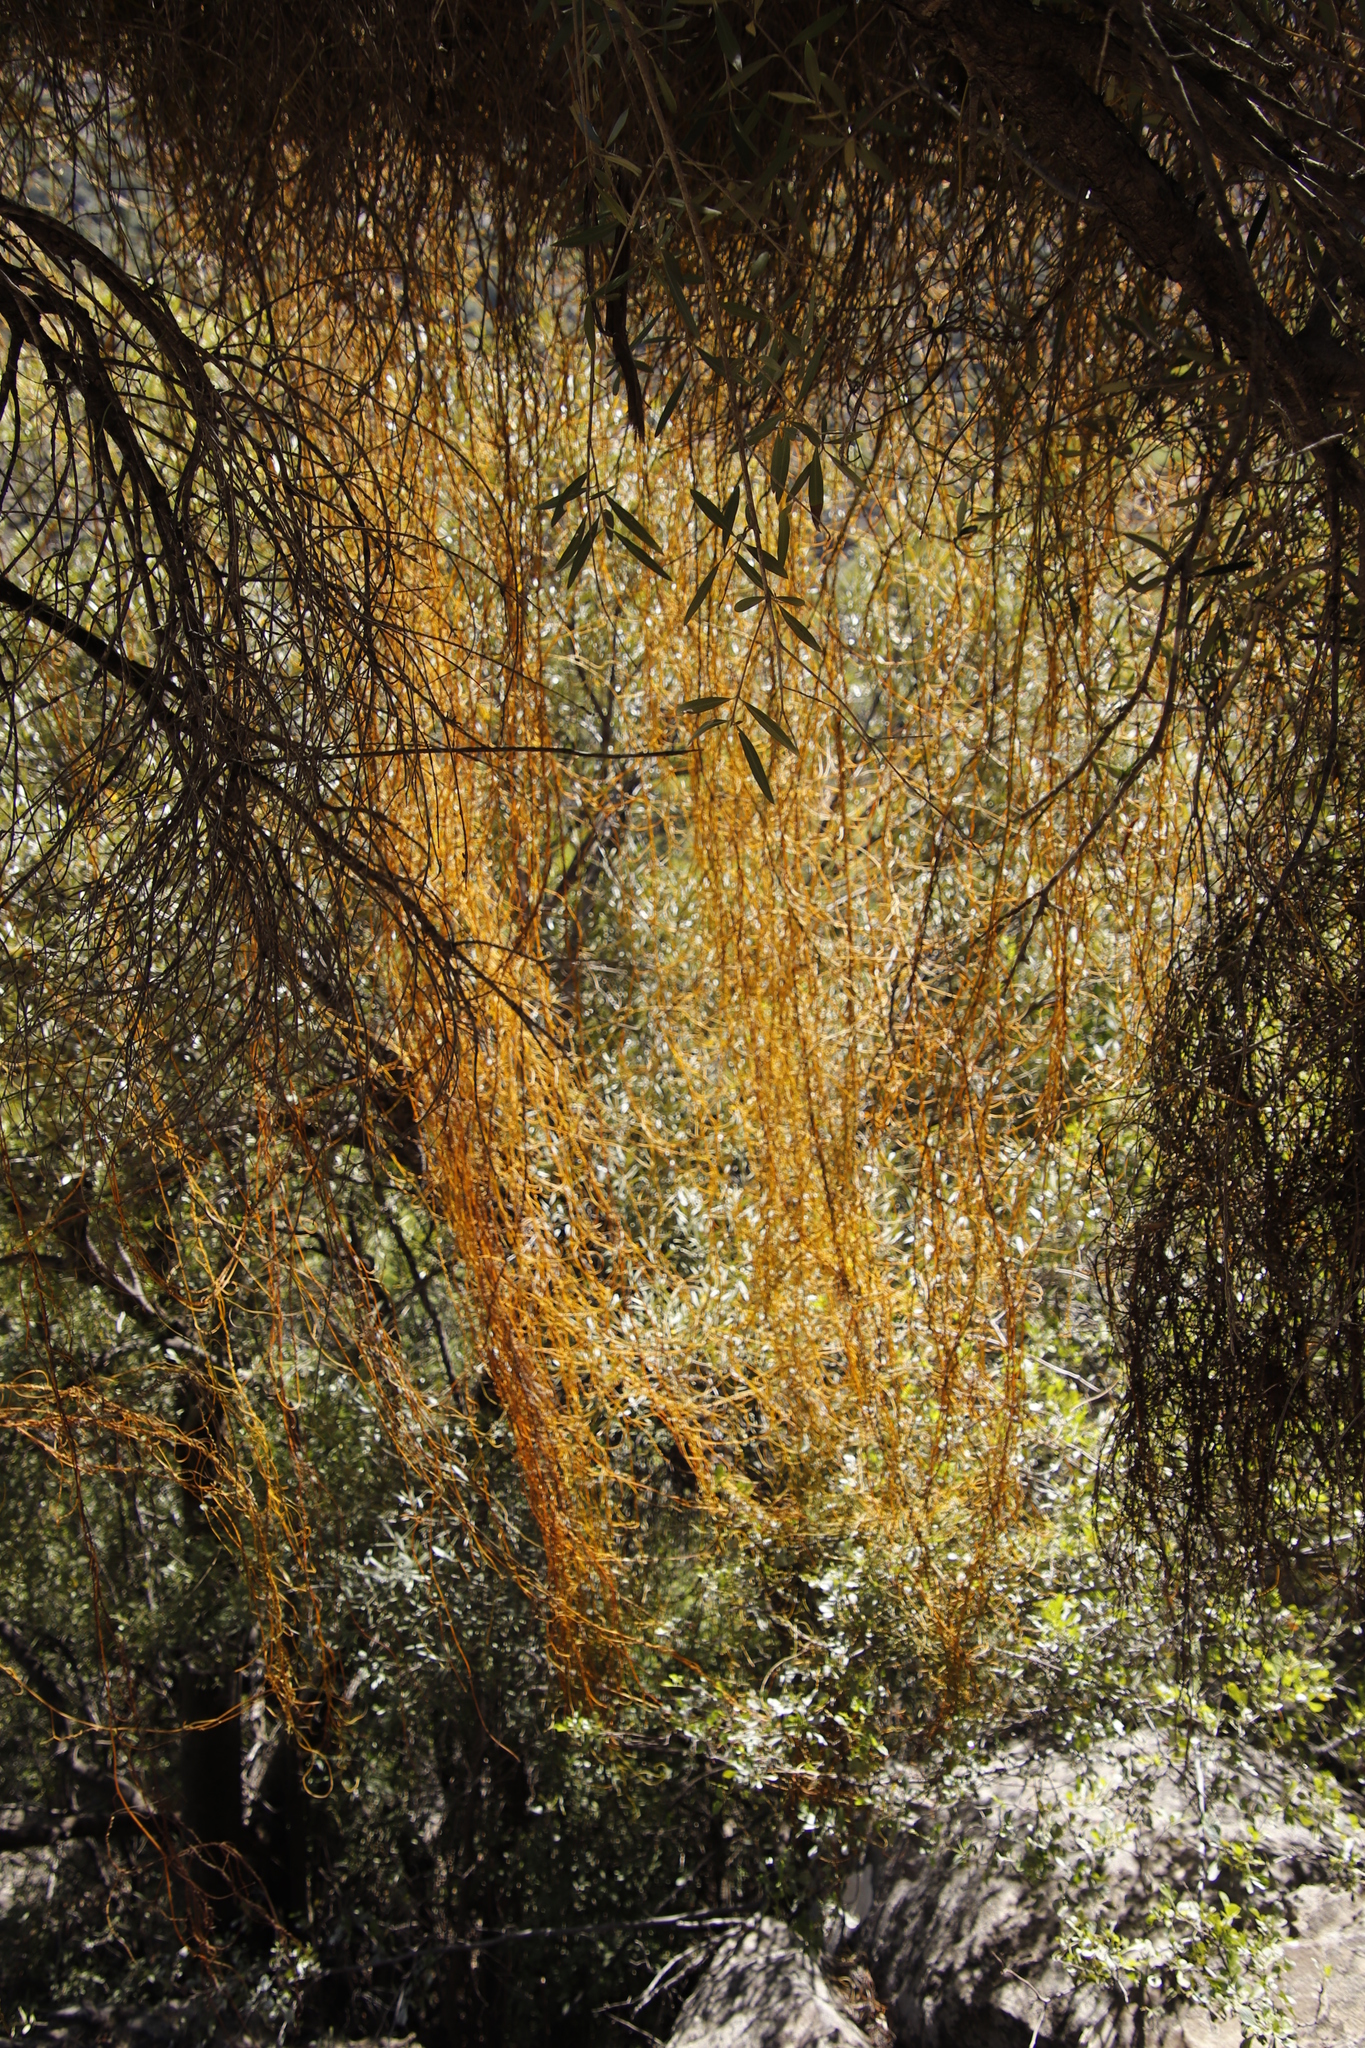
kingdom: Plantae
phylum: Tracheophyta
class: Magnoliopsida
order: Laurales
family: Lauraceae
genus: Cassytha
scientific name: Cassytha ciliolata
